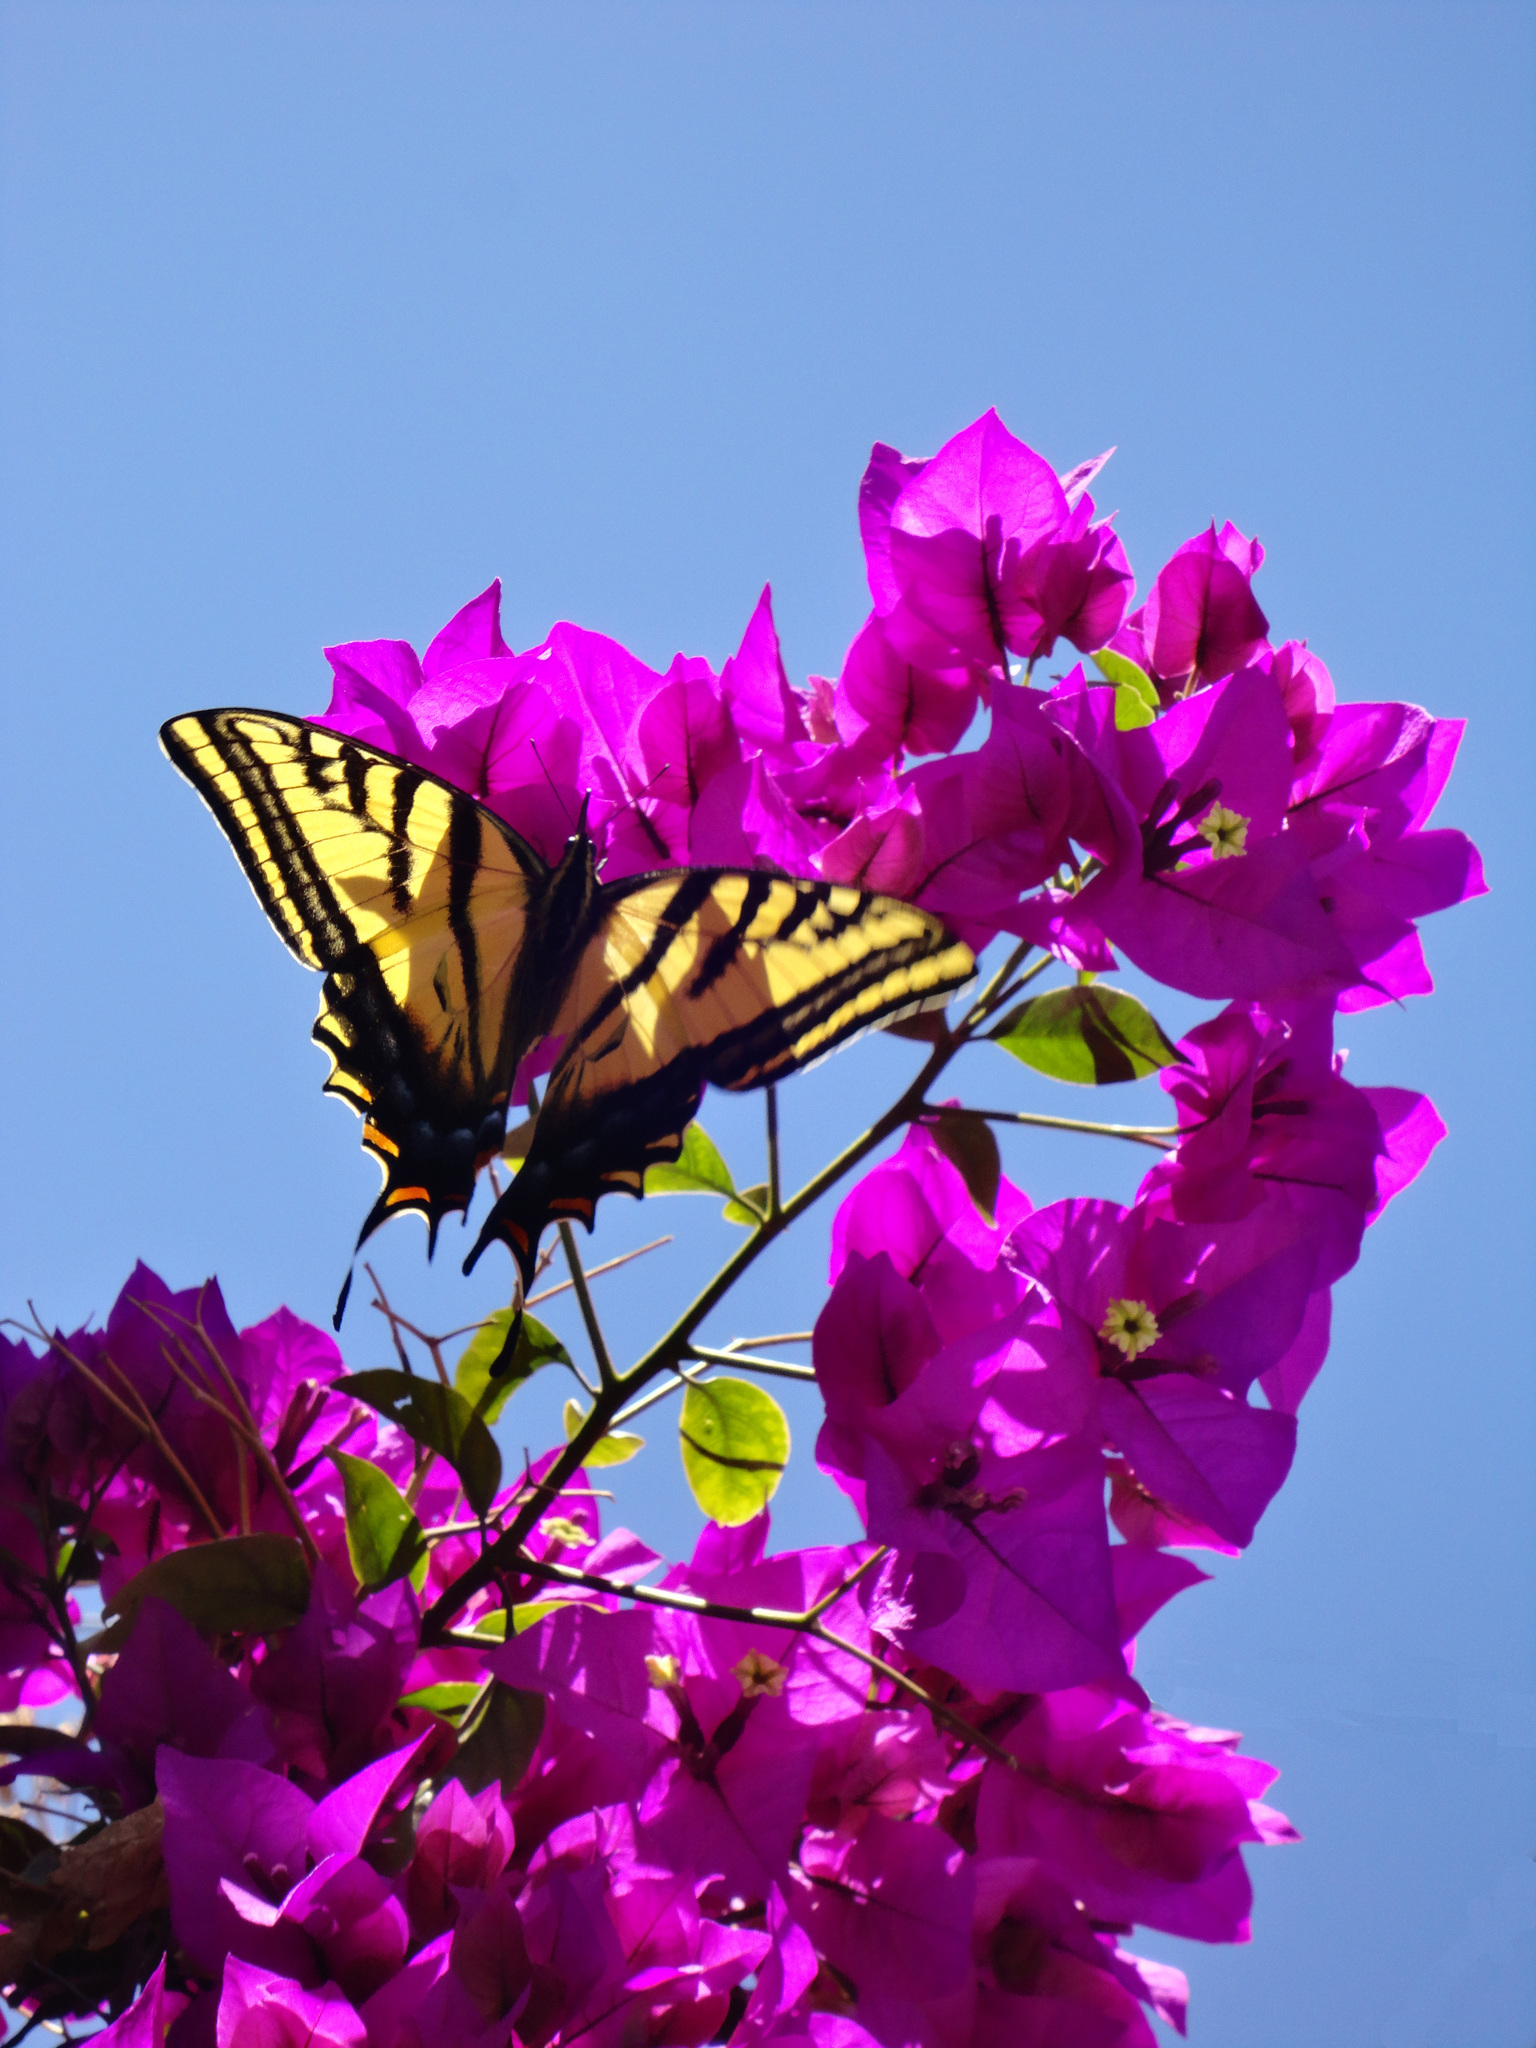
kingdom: Animalia
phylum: Arthropoda
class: Insecta
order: Lepidoptera
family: Papilionidae
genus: Papilio
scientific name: Papilio multicaudata
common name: Two-tailed tiger swallowtail
